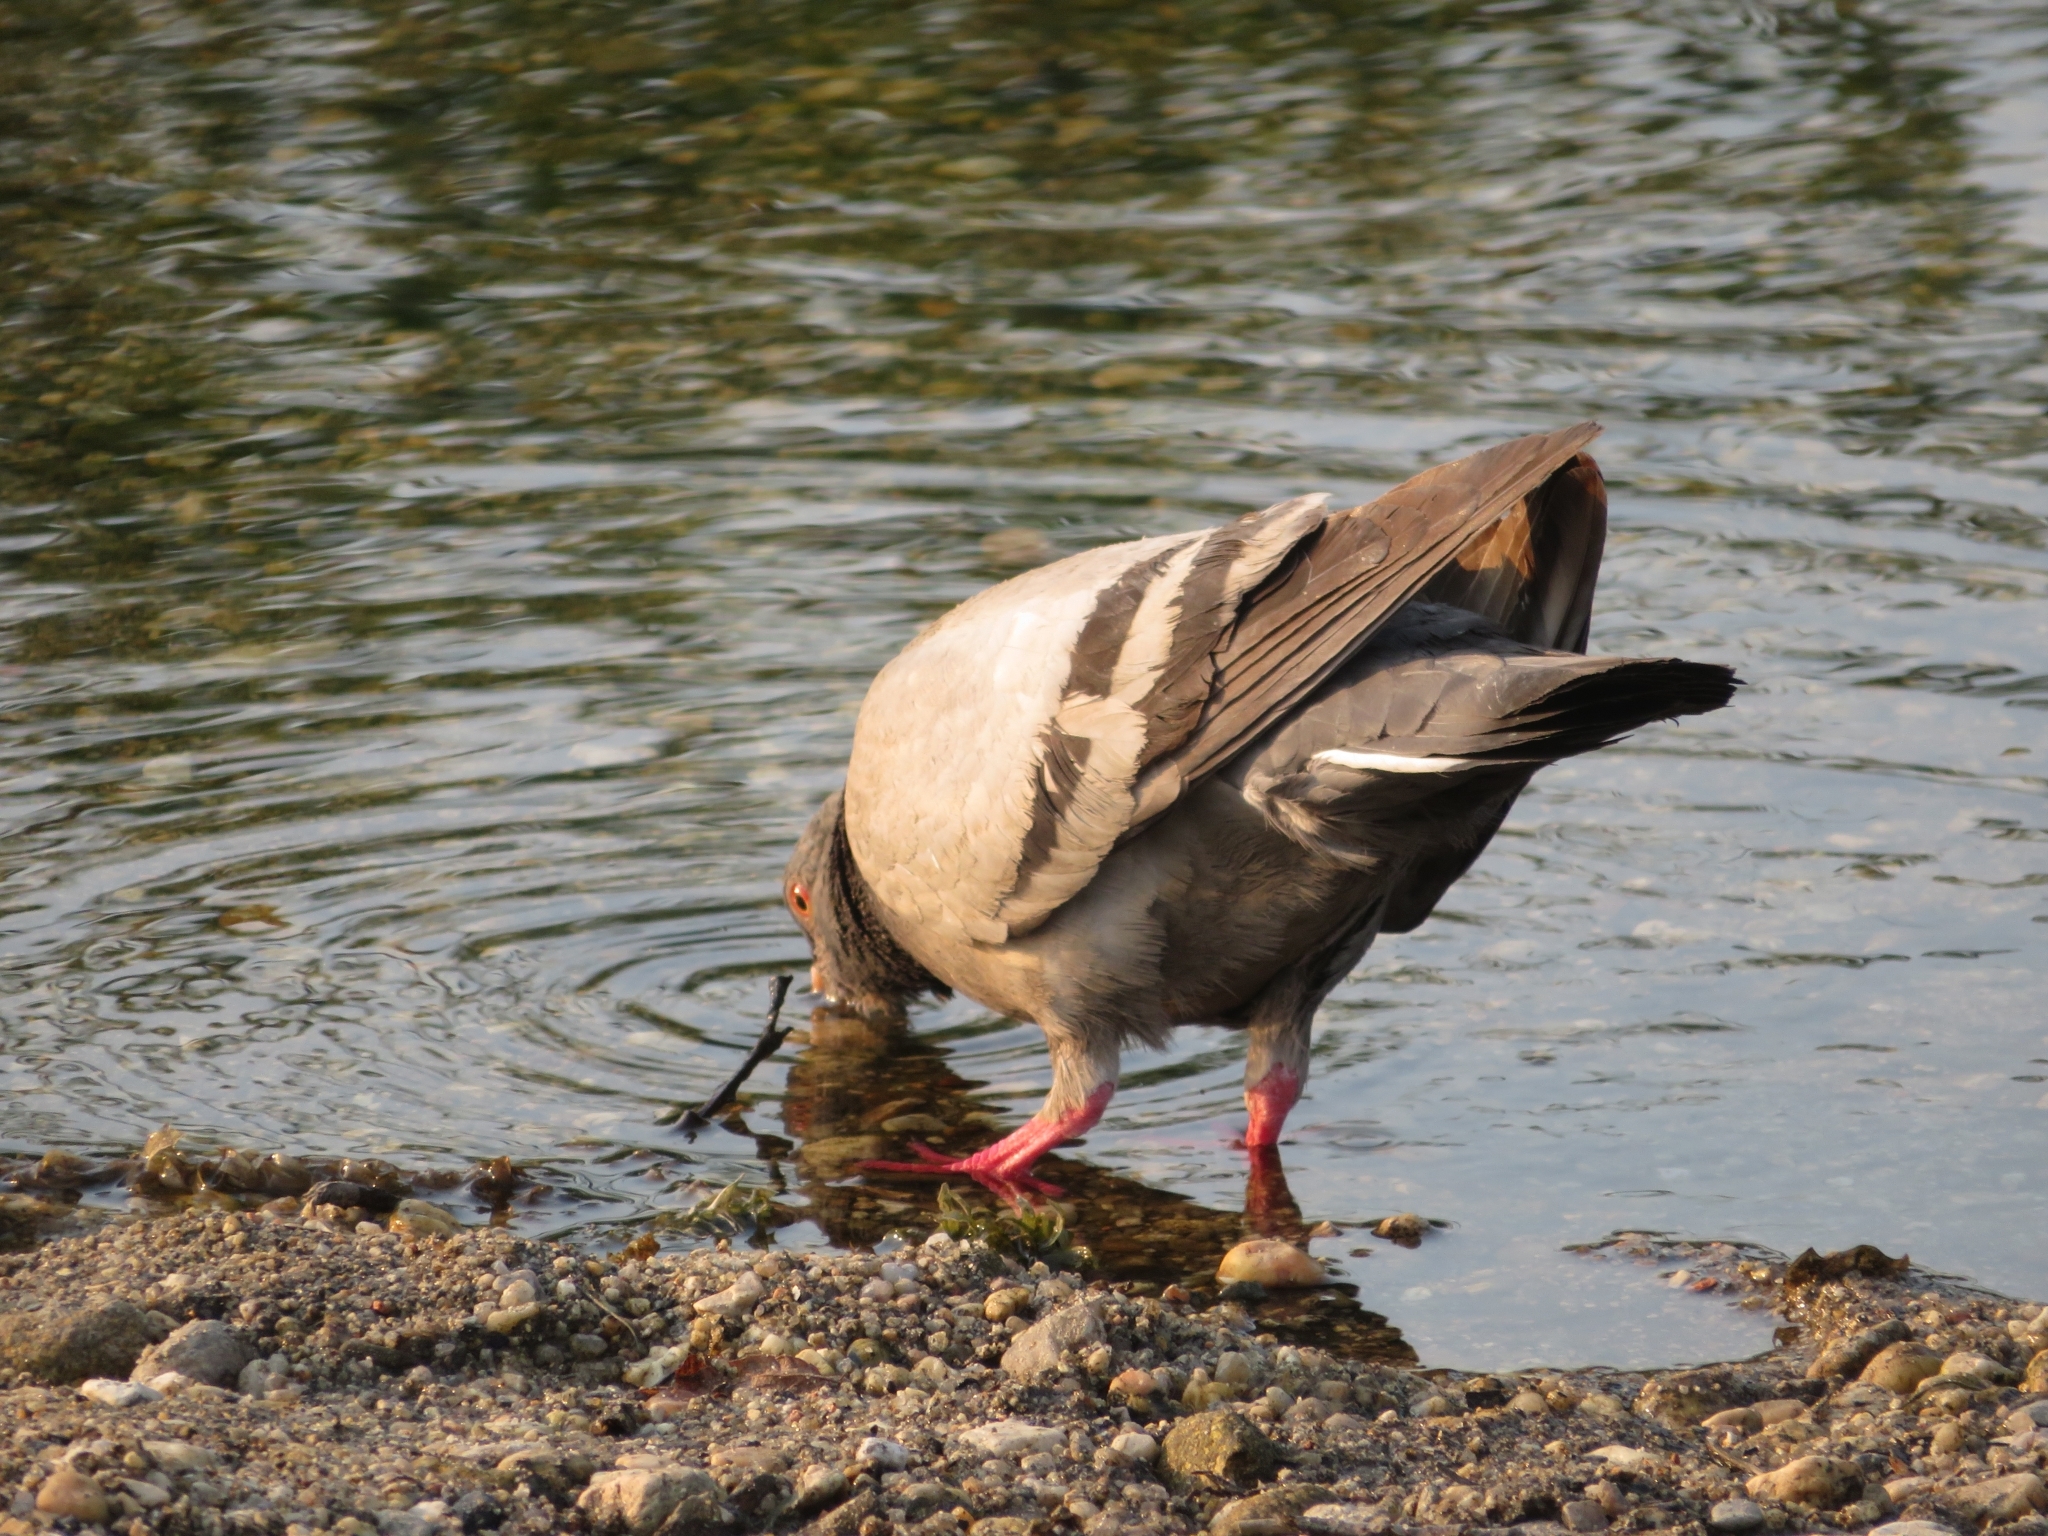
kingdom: Animalia
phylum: Chordata
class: Aves
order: Columbiformes
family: Columbidae
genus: Columba
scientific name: Columba livia
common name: Rock pigeon
